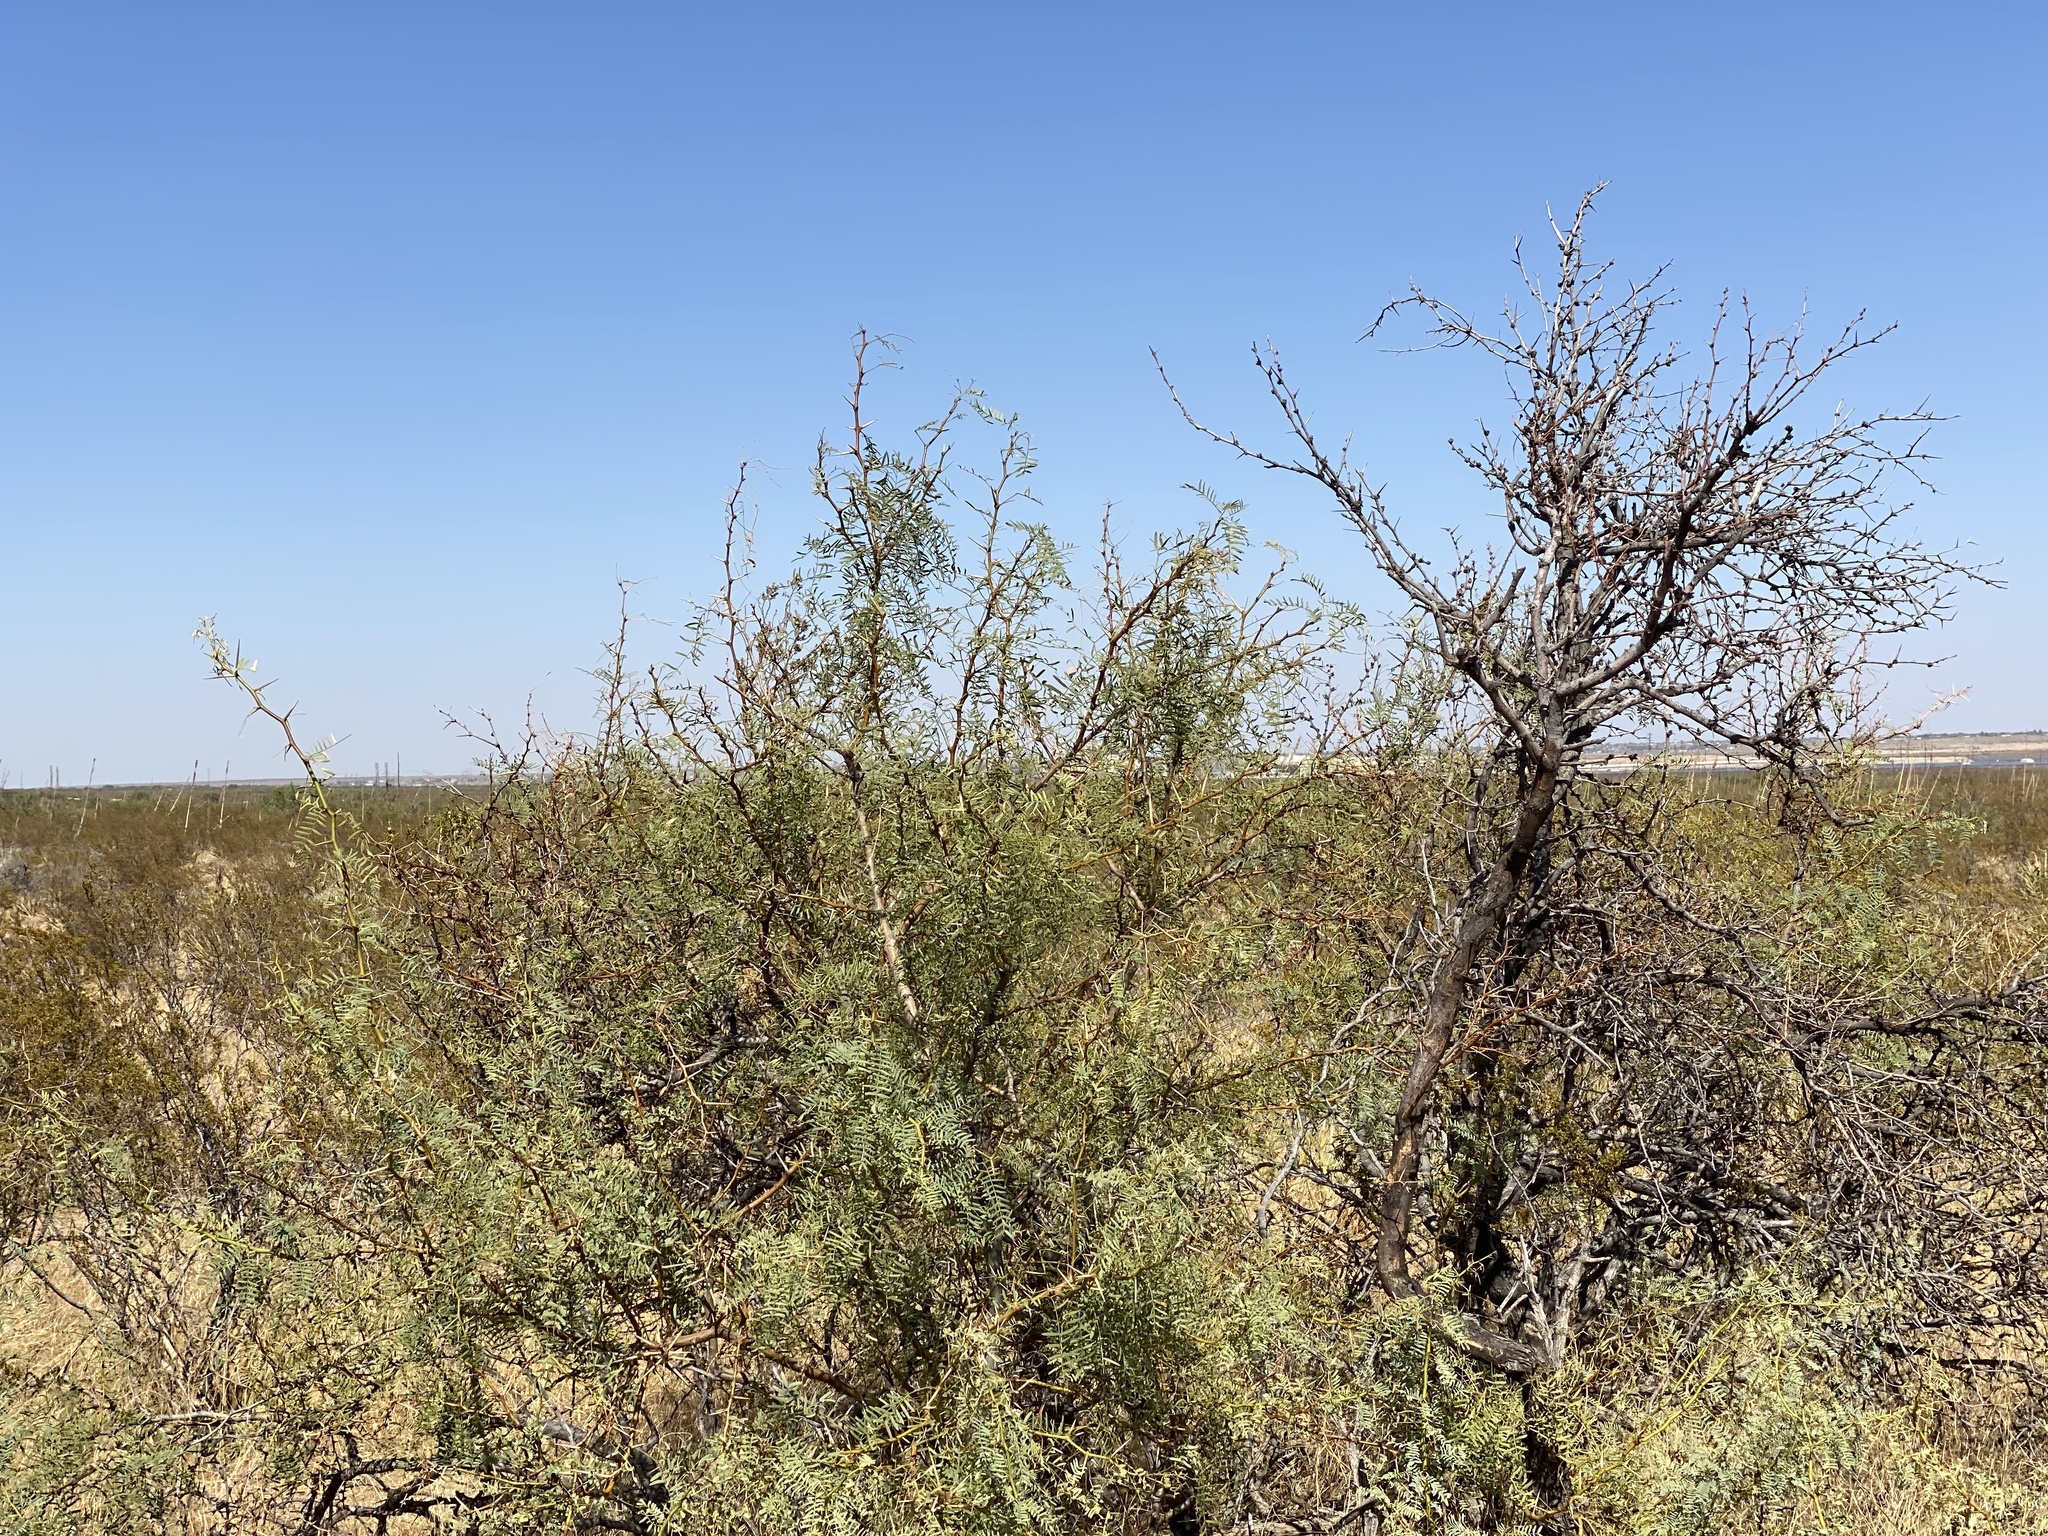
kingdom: Plantae
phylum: Tracheophyta
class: Magnoliopsida
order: Fabales
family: Fabaceae
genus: Prosopis
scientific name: Prosopis glandulosa
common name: Honey mesquite
